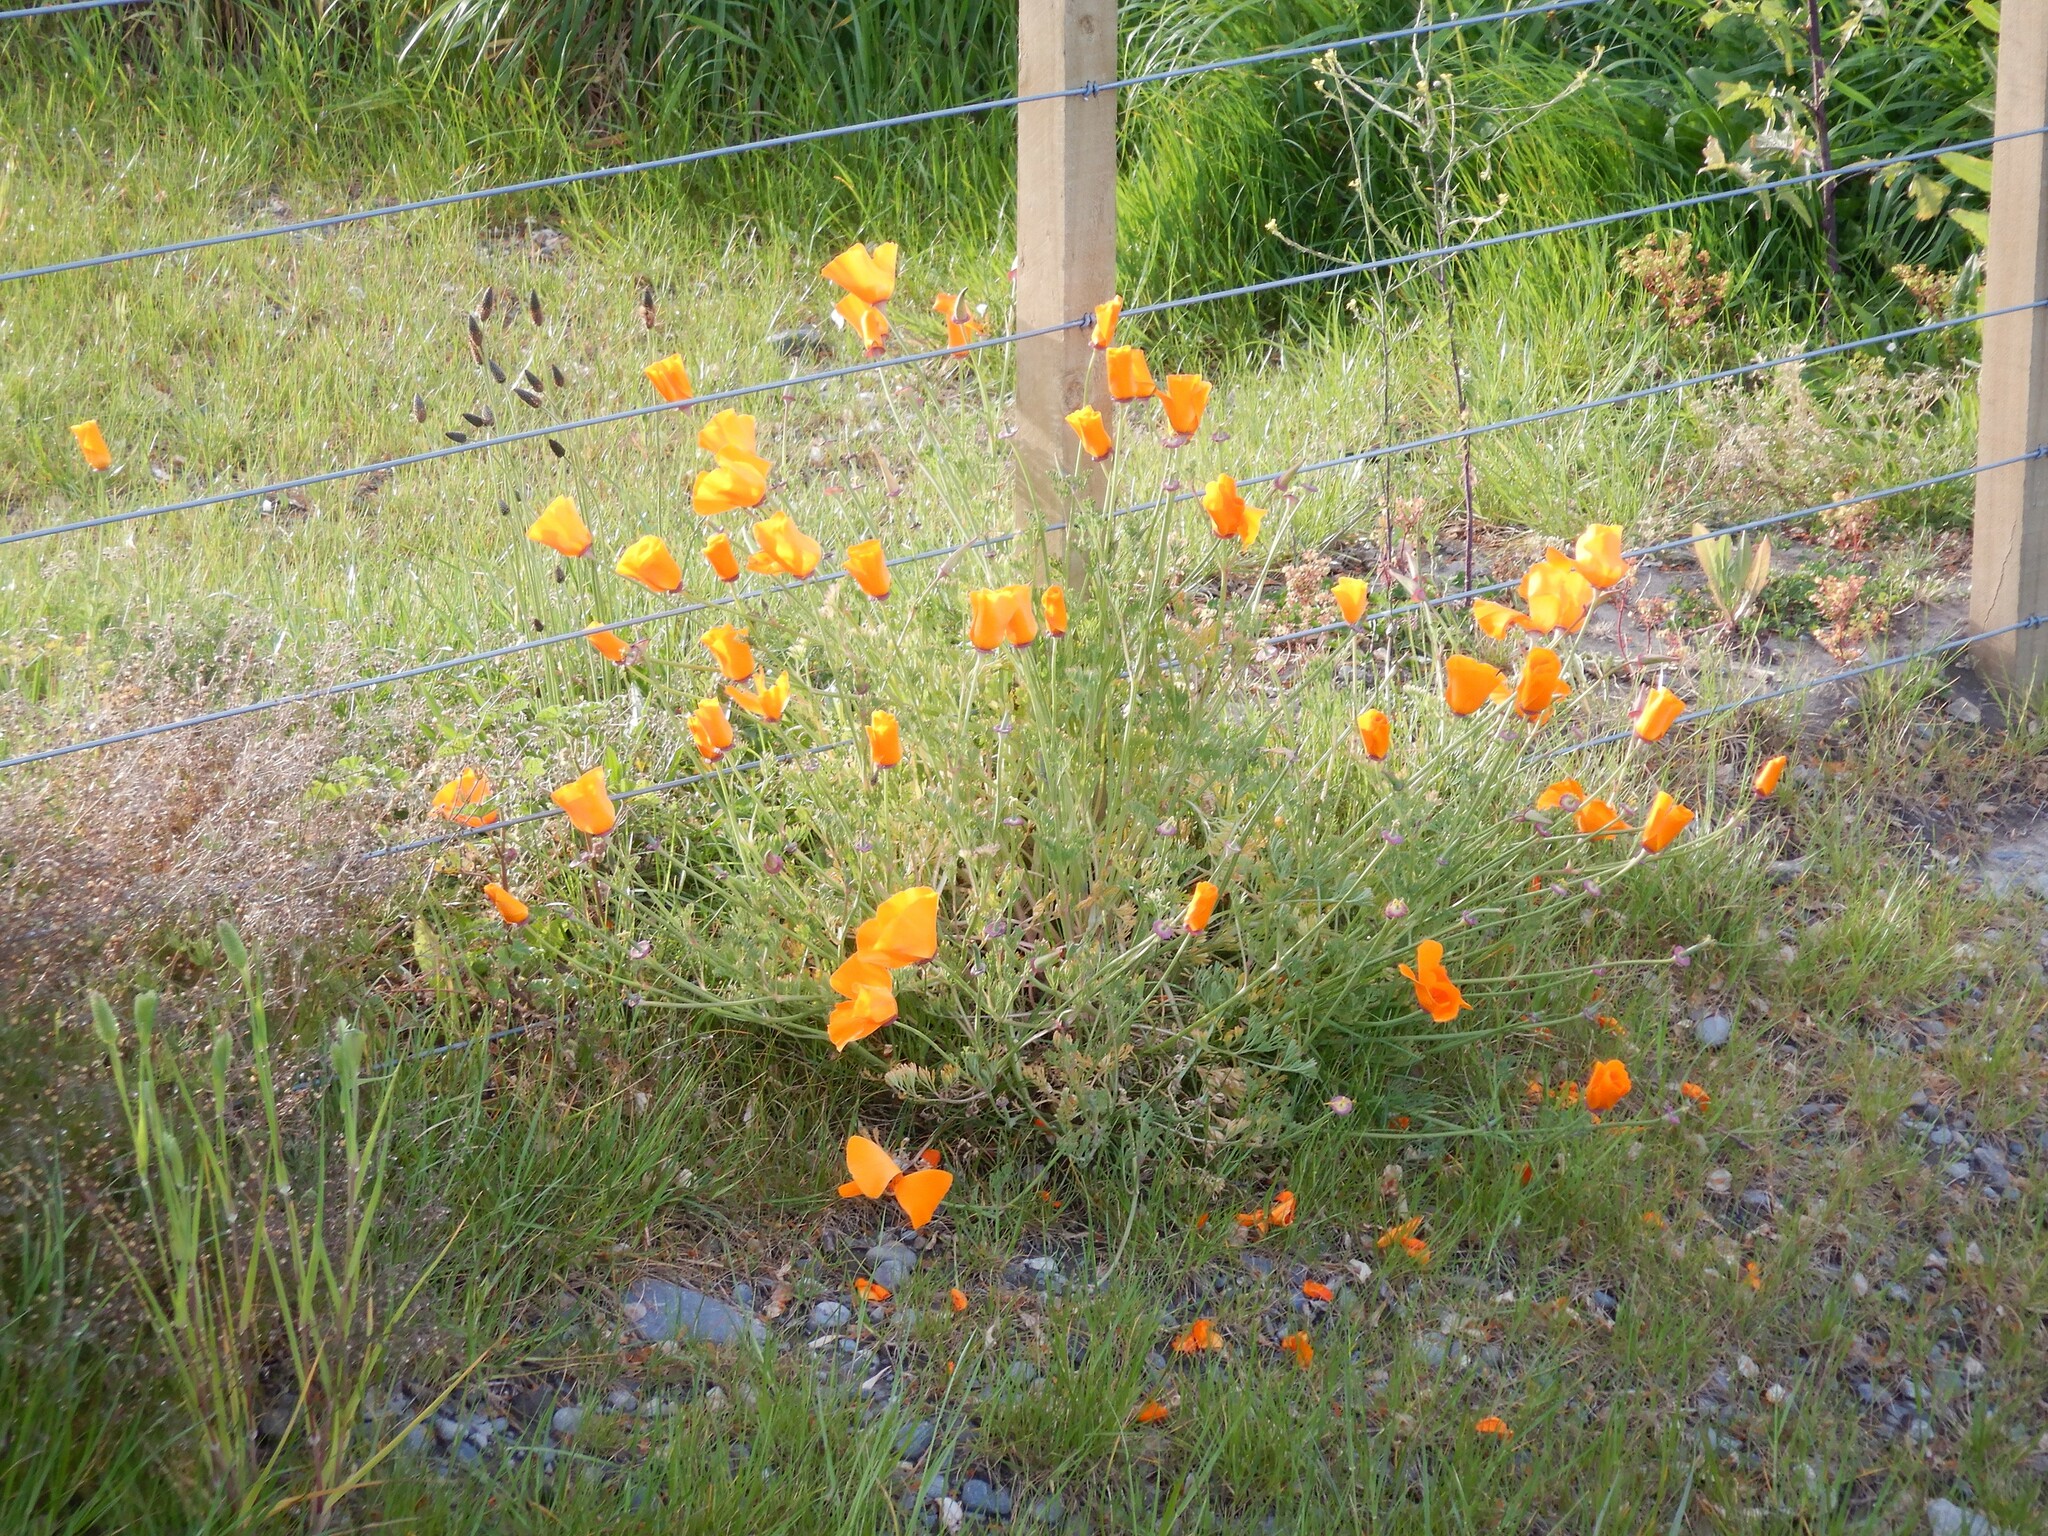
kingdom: Plantae
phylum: Tracheophyta
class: Magnoliopsida
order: Ranunculales
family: Papaveraceae
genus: Eschscholzia
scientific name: Eschscholzia californica
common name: California poppy
